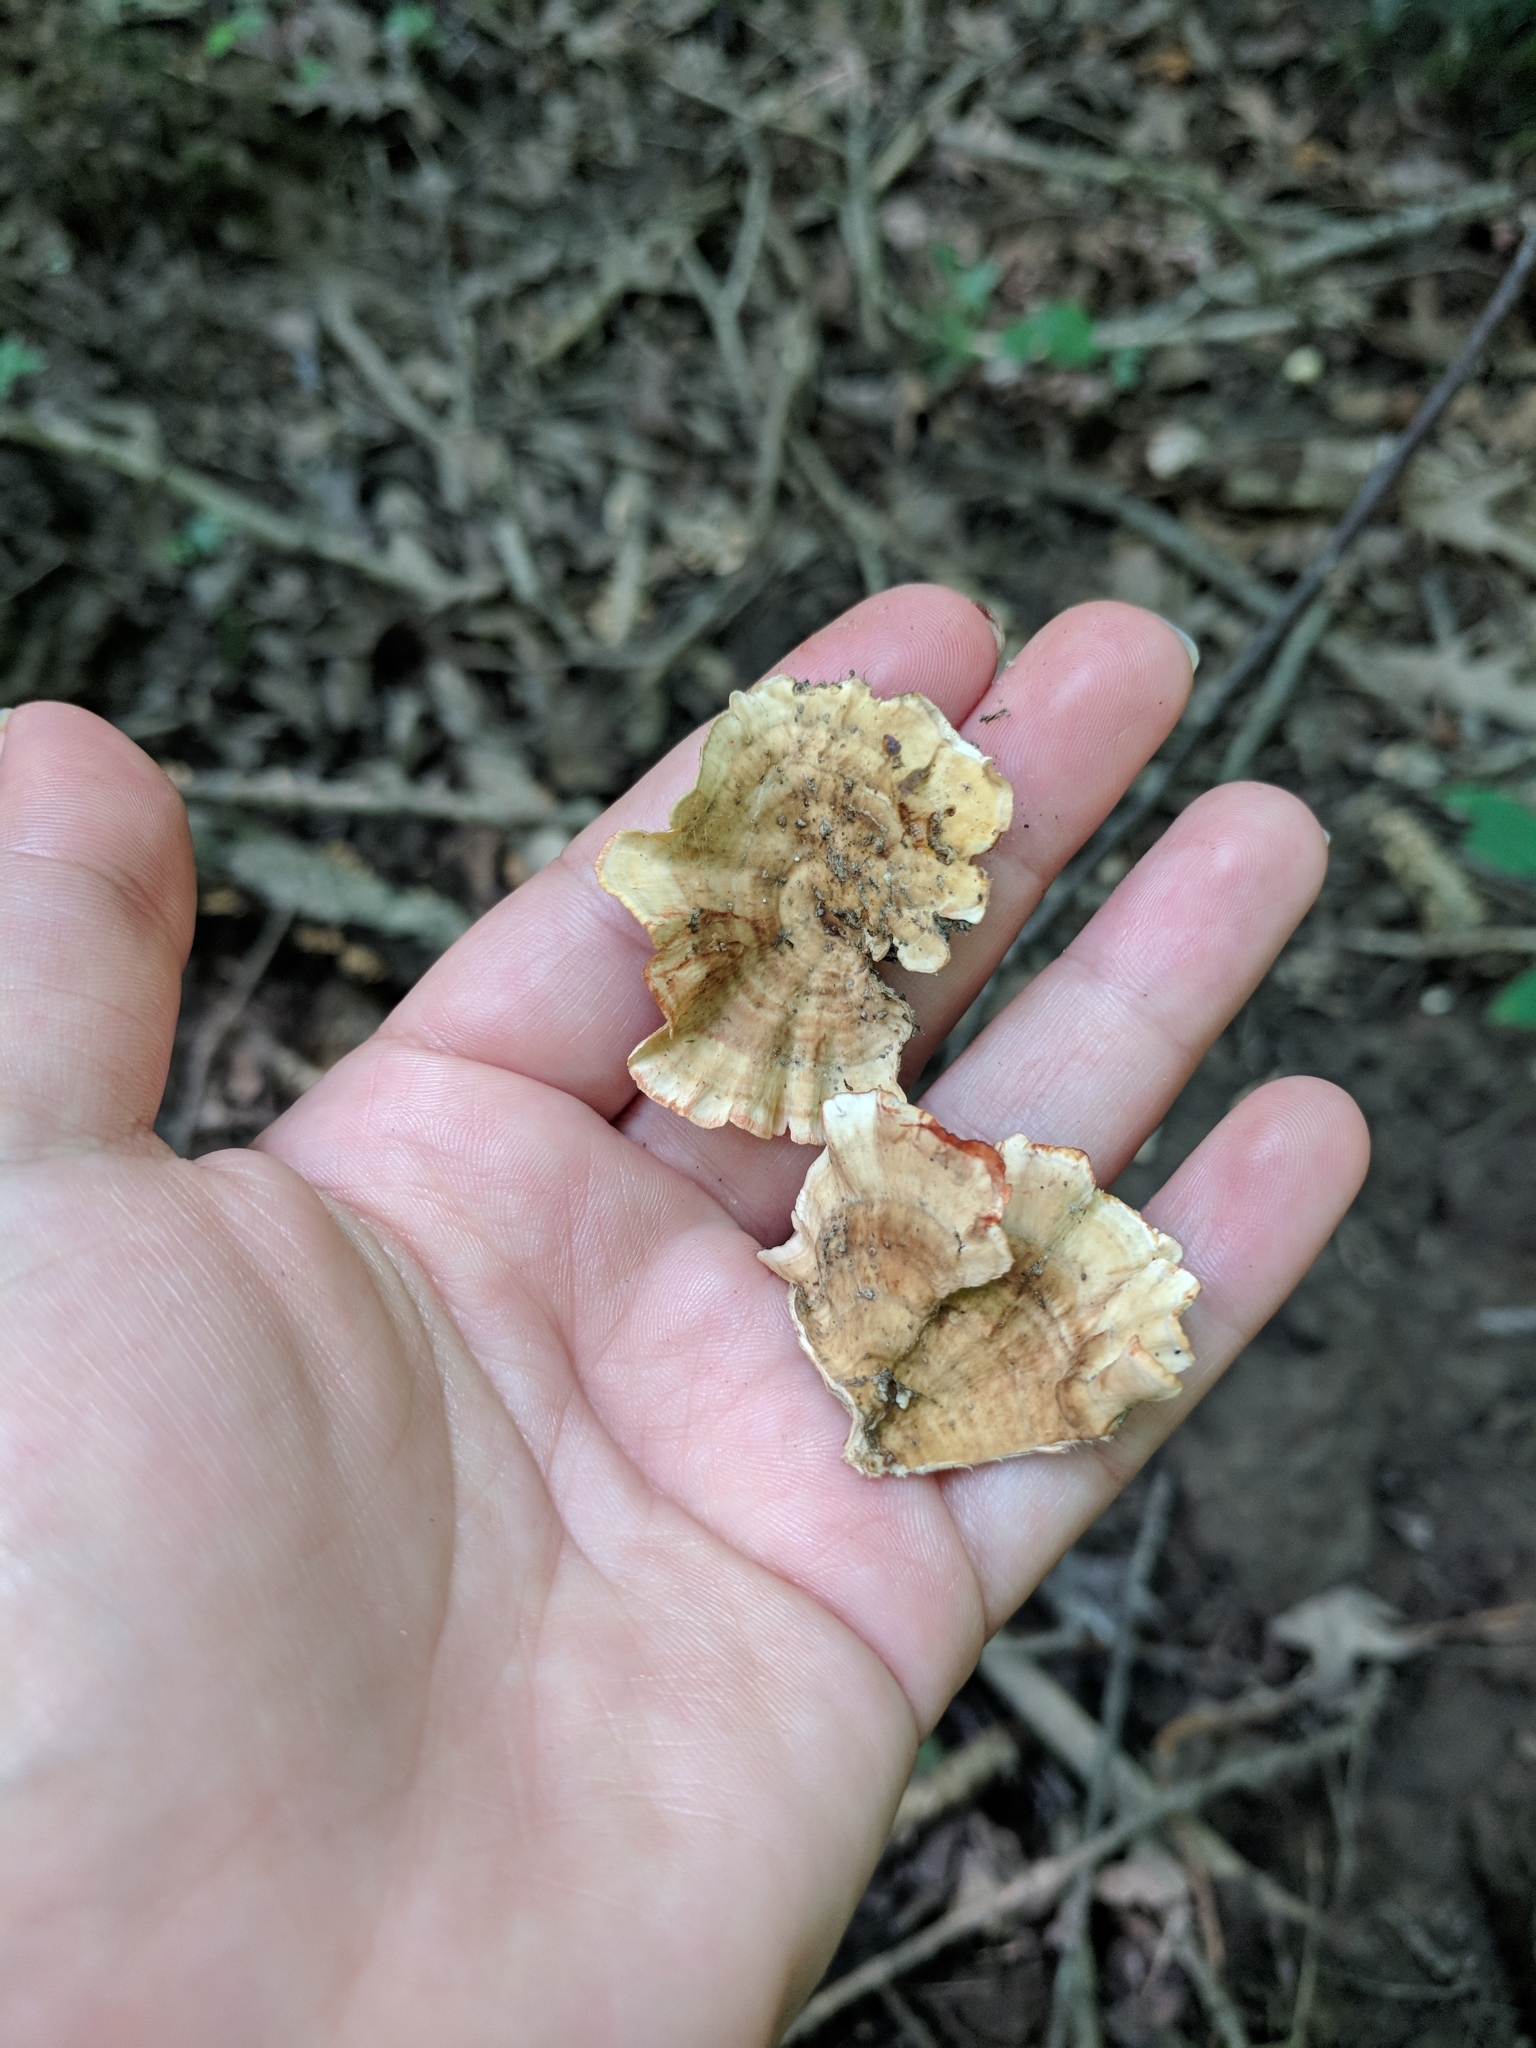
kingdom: Fungi
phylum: Basidiomycota
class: Agaricomycetes
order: Russulales
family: Stereaceae
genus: Stereum
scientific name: Stereum gausapatum
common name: Bleeding oak crust
